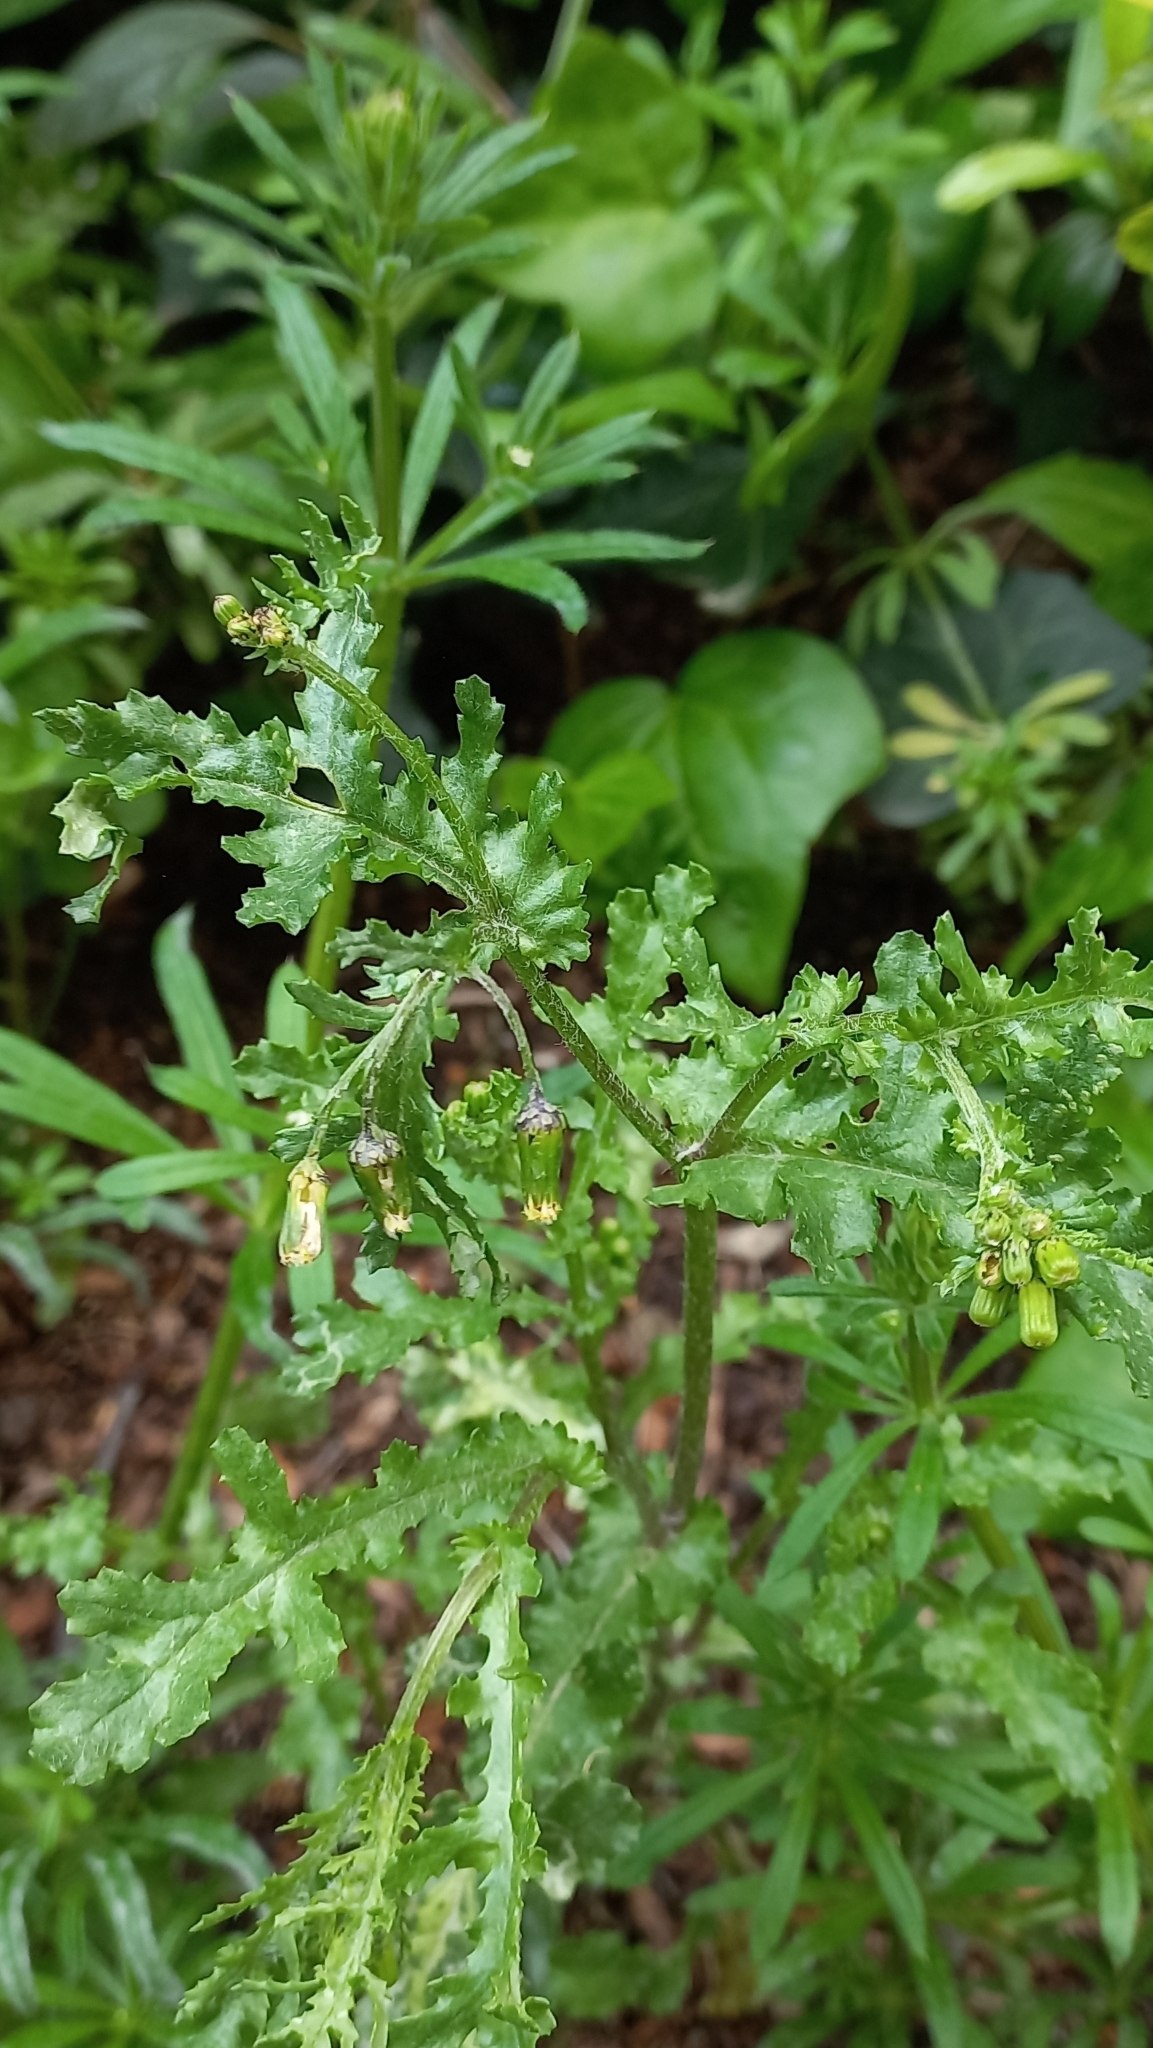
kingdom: Plantae
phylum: Tracheophyta
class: Magnoliopsida
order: Asterales
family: Asteraceae
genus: Senecio
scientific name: Senecio vulgaris
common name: Old-man-in-the-spring
